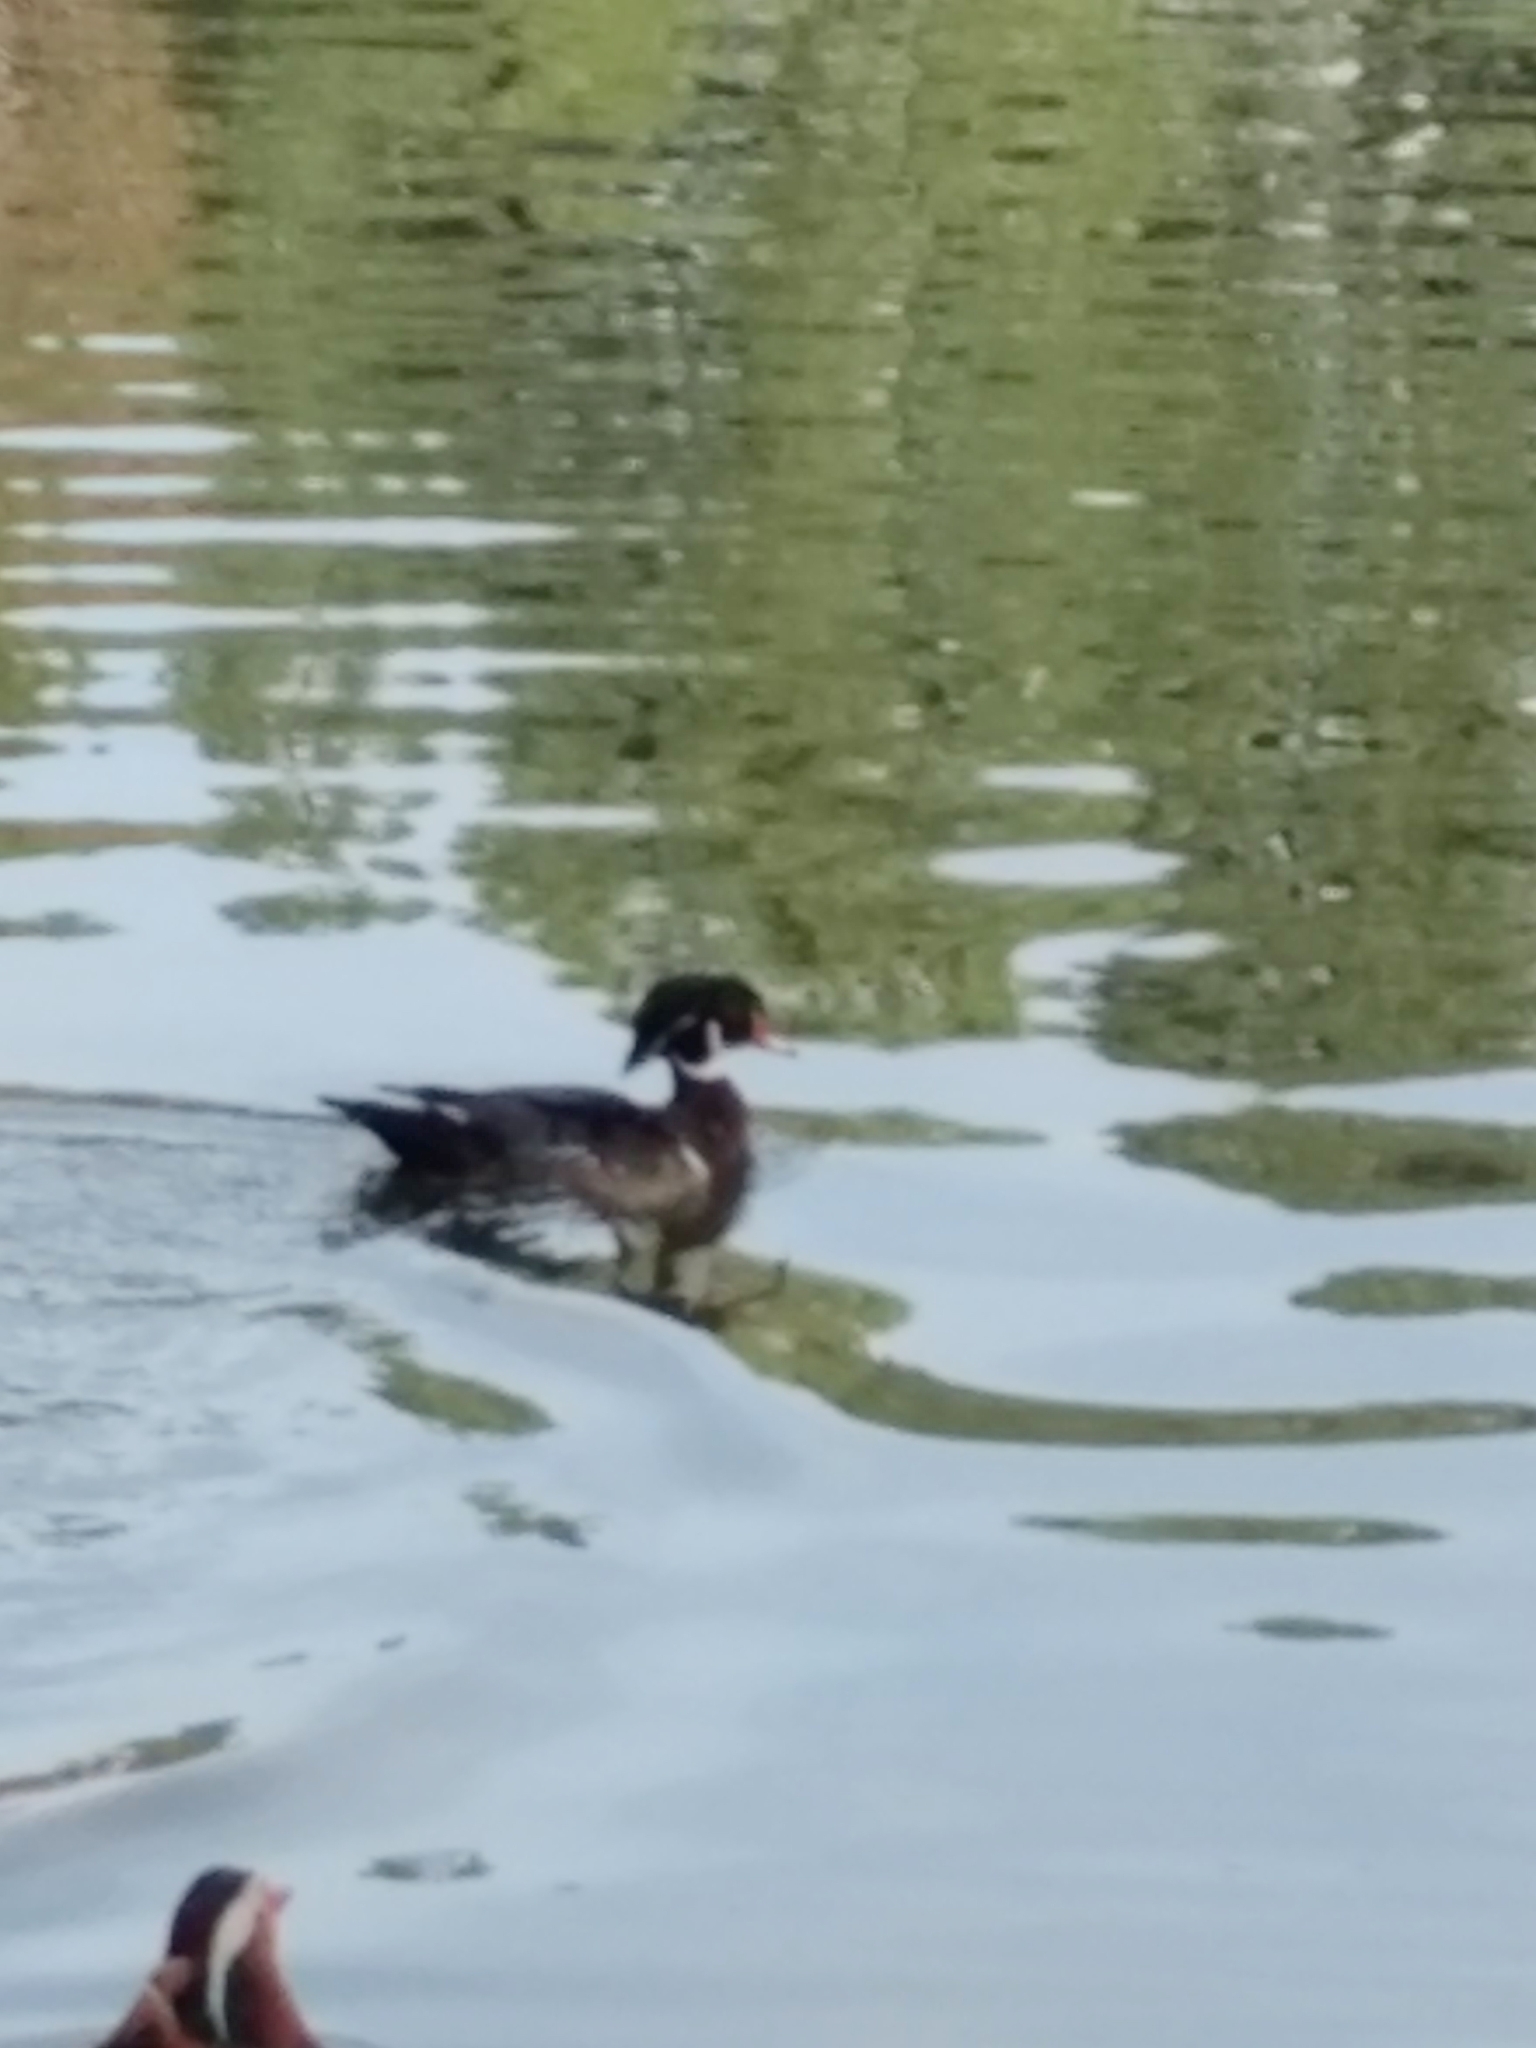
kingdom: Animalia
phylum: Chordata
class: Aves
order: Anseriformes
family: Anatidae
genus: Aix
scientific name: Aix sponsa
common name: Wood duck
